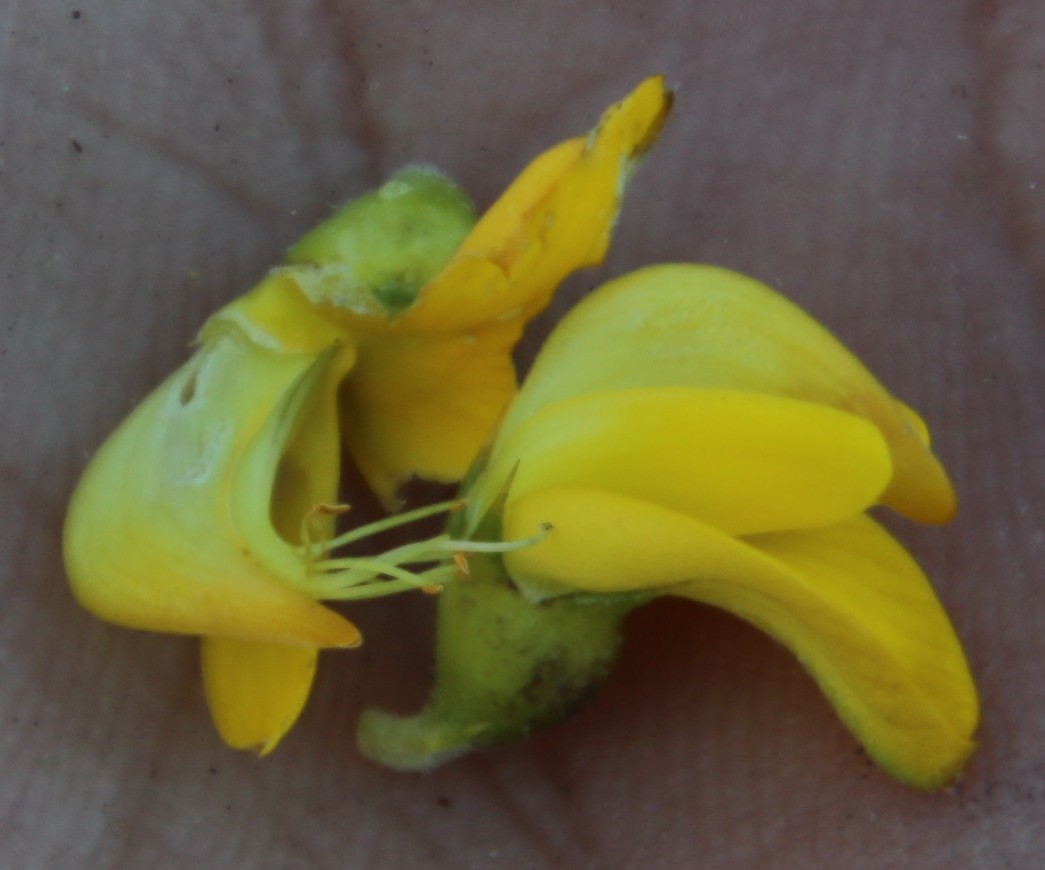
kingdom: Plantae
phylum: Tracheophyta
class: Magnoliopsida
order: Fabales
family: Fabaceae
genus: Aspalathus
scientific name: Aspalathus astroites
